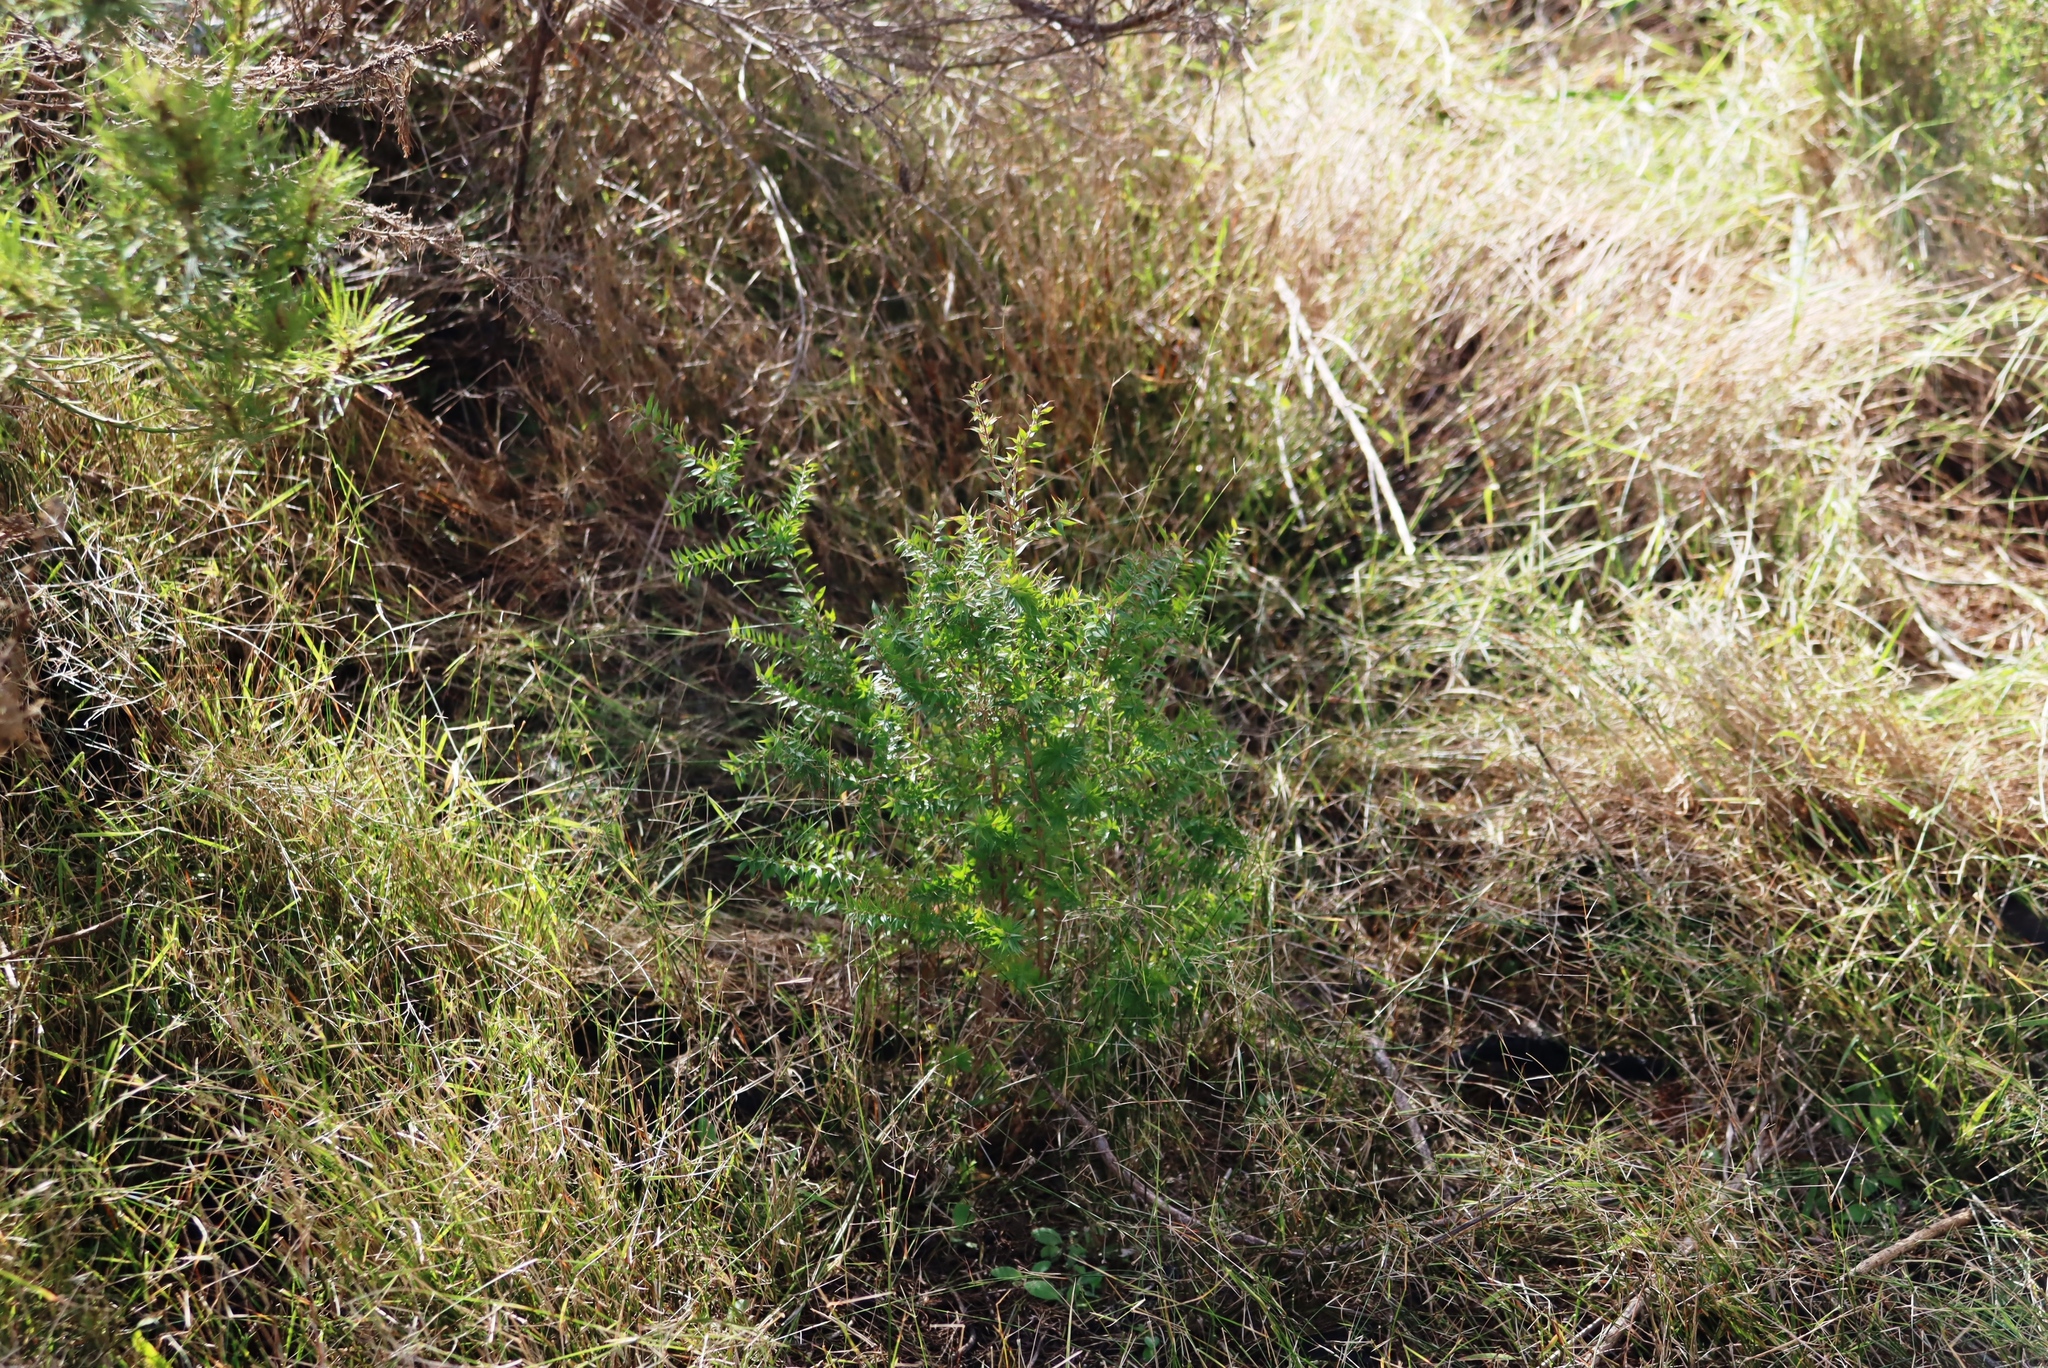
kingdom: Plantae
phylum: Tracheophyta
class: Magnoliopsida
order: Myrtales
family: Myrtaceae
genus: Melaleuca
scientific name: Melaleuca styphelioides
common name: Prickly paperbark
